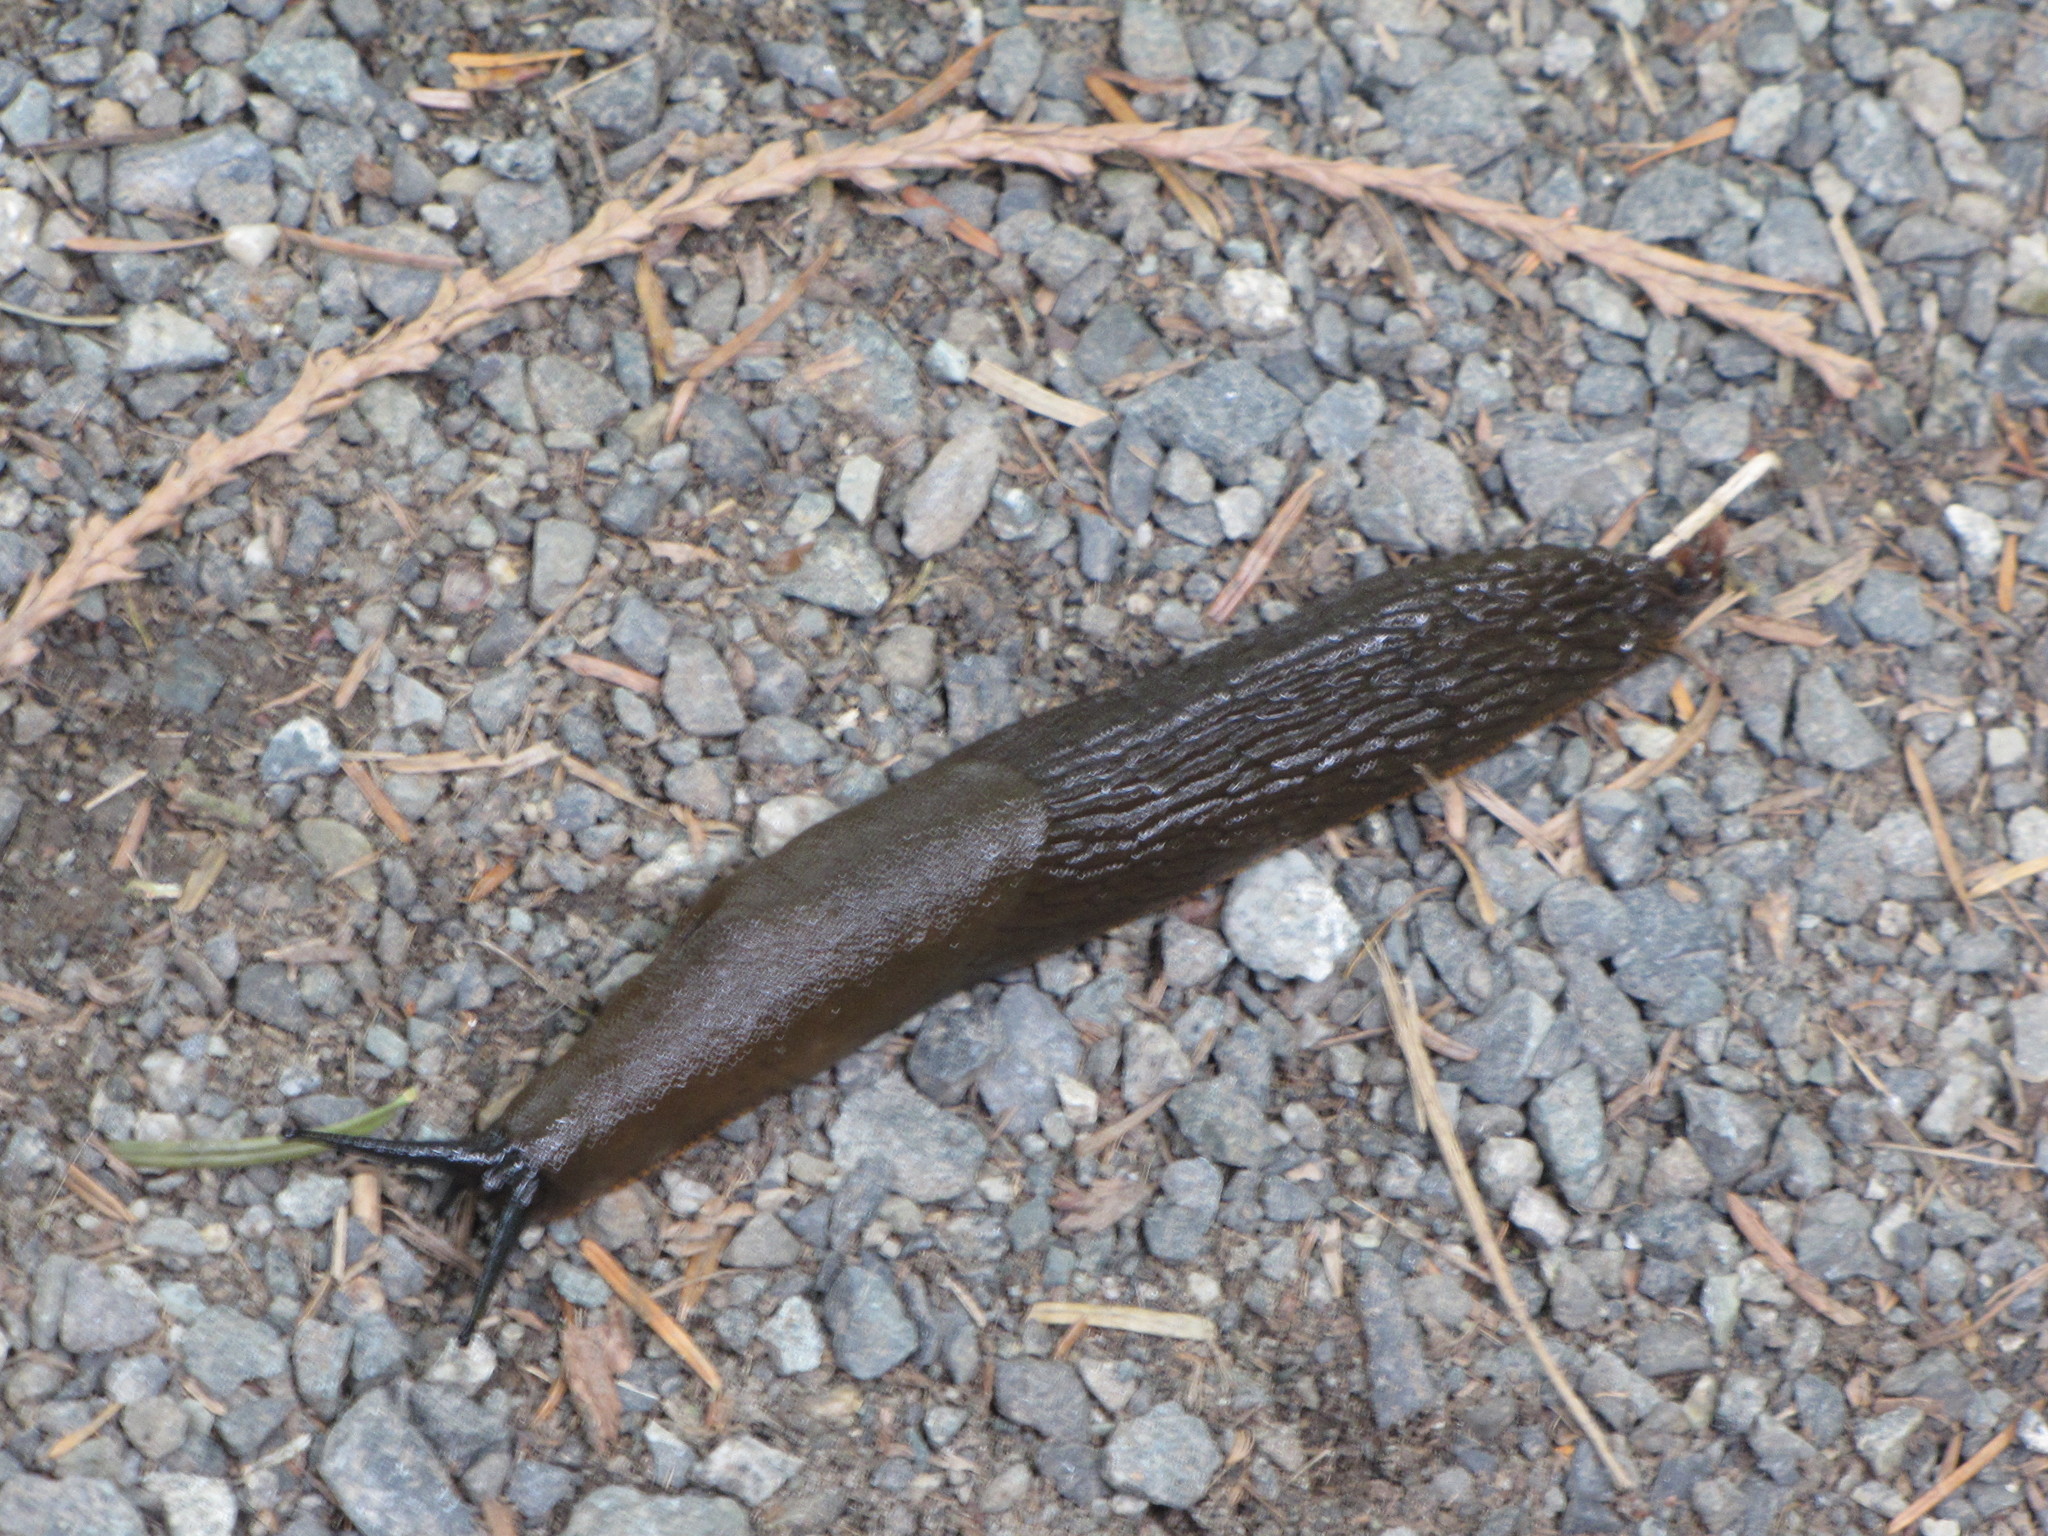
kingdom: Animalia
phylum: Mollusca
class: Gastropoda
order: Stylommatophora
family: Arionidae
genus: Arion
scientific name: Arion rufus
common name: Chocolate arion
